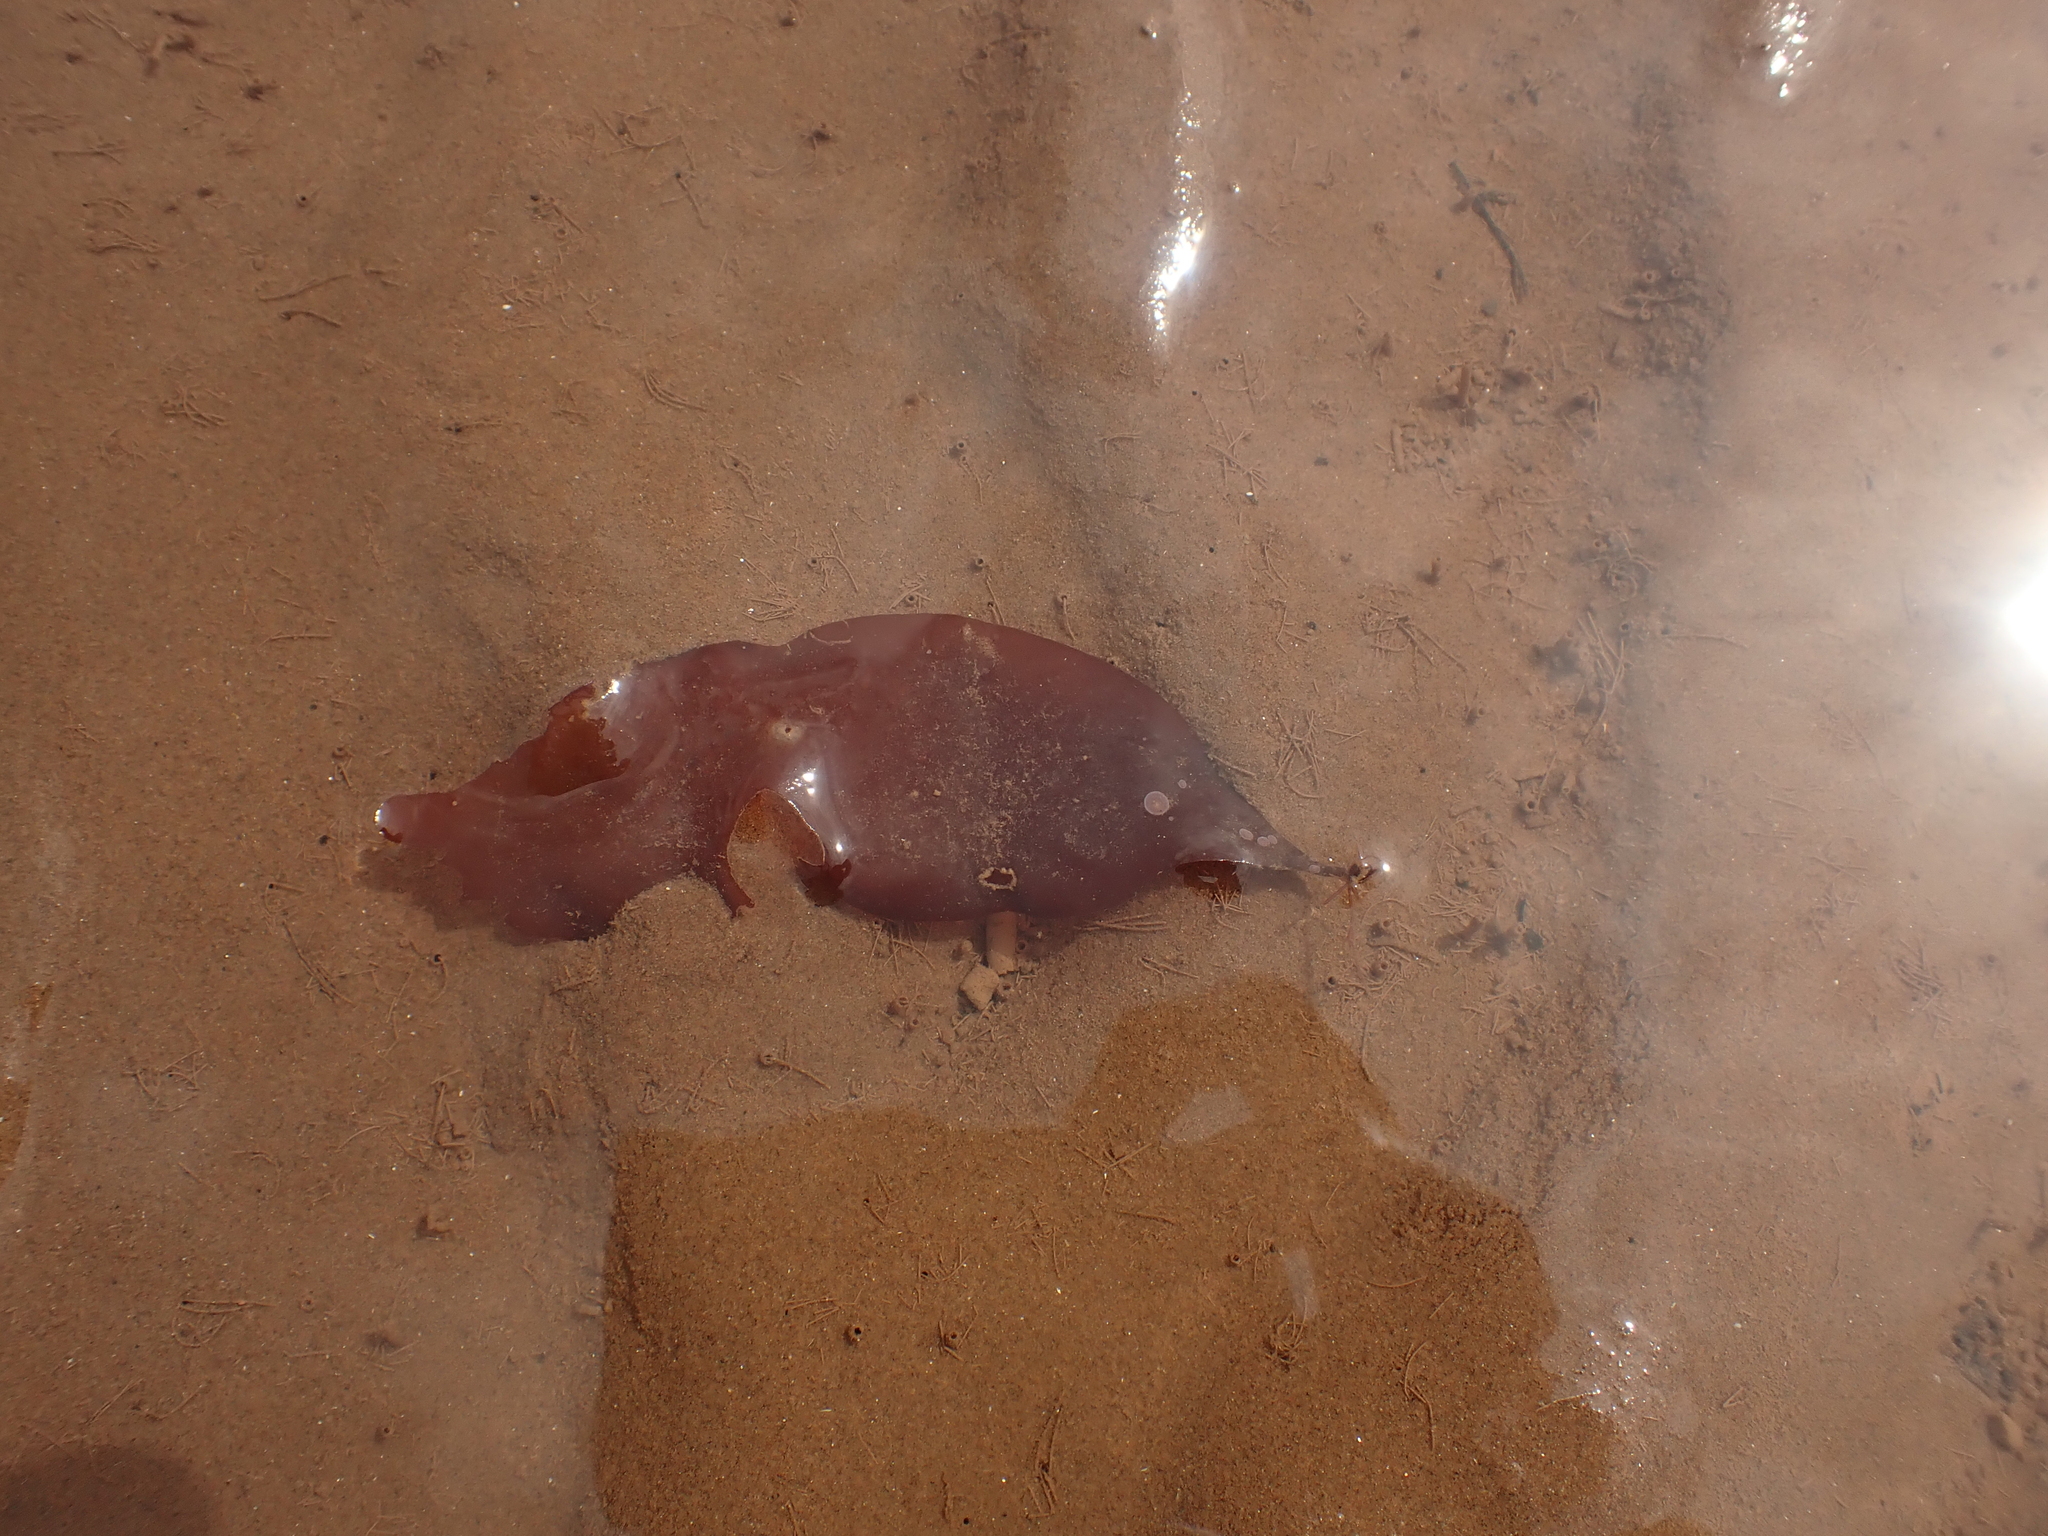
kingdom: Plantae
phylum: Rhodophyta
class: Florideophyceae
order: Palmariales
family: Palmariaceae
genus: Palmaria
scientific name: Palmaria palmata
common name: Dulse
